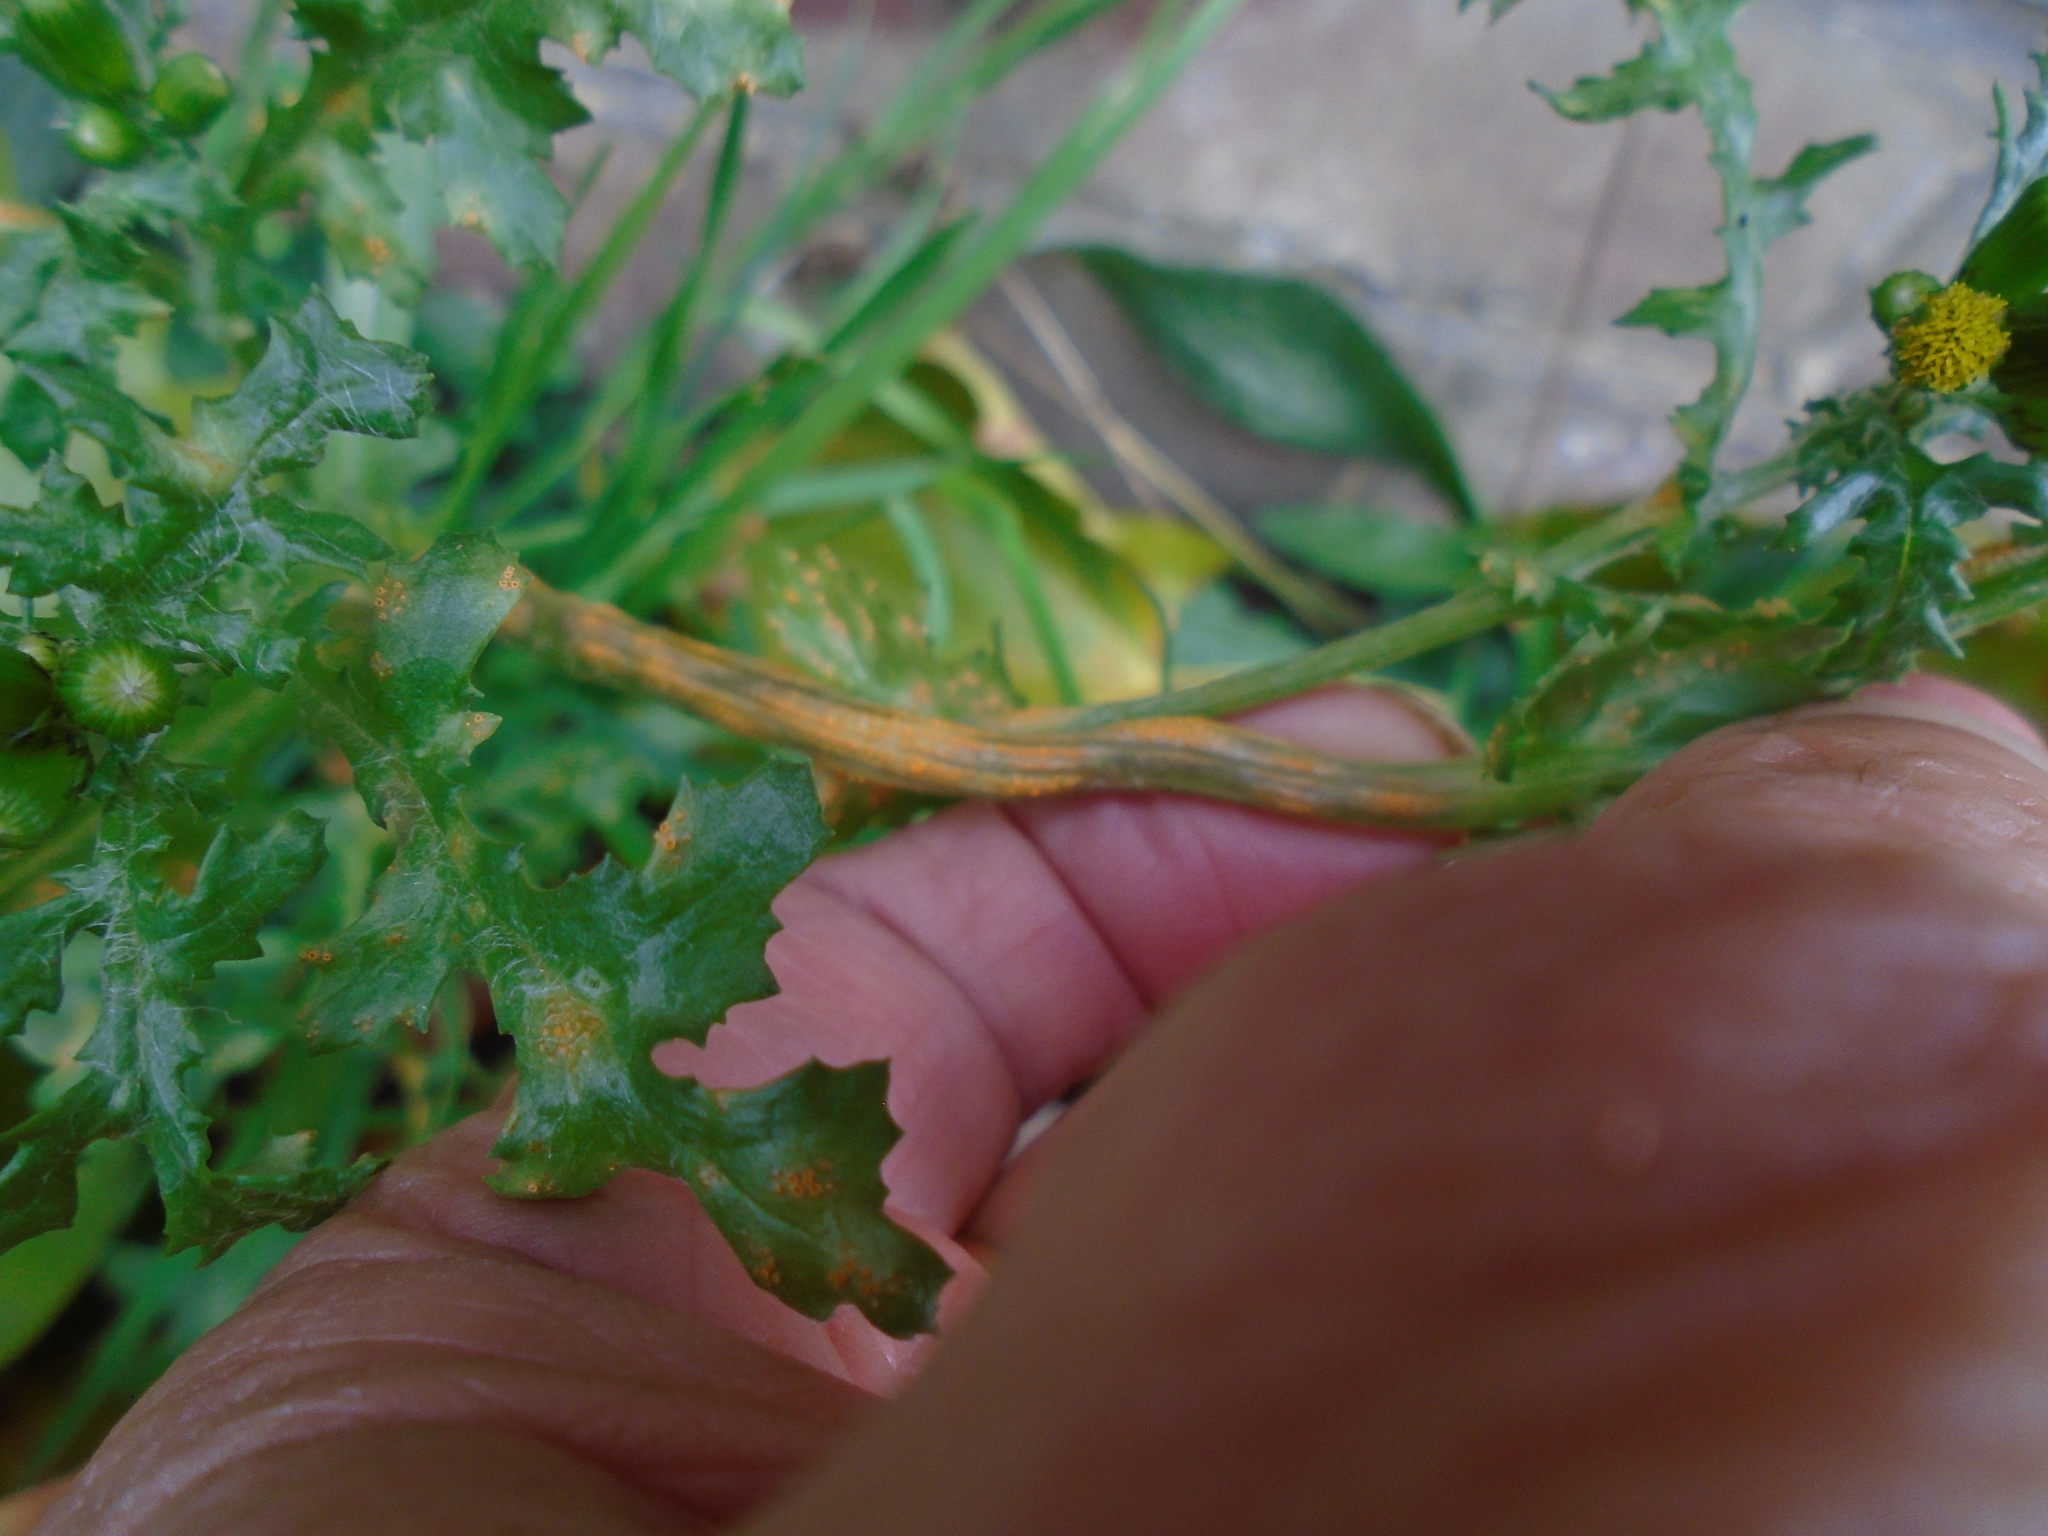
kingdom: Fungi
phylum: Basidiomycota
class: Pucciniomycetes
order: Pucciniales
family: Pucciniaceae
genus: Puccinia
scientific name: Puccinia lagenophorae
